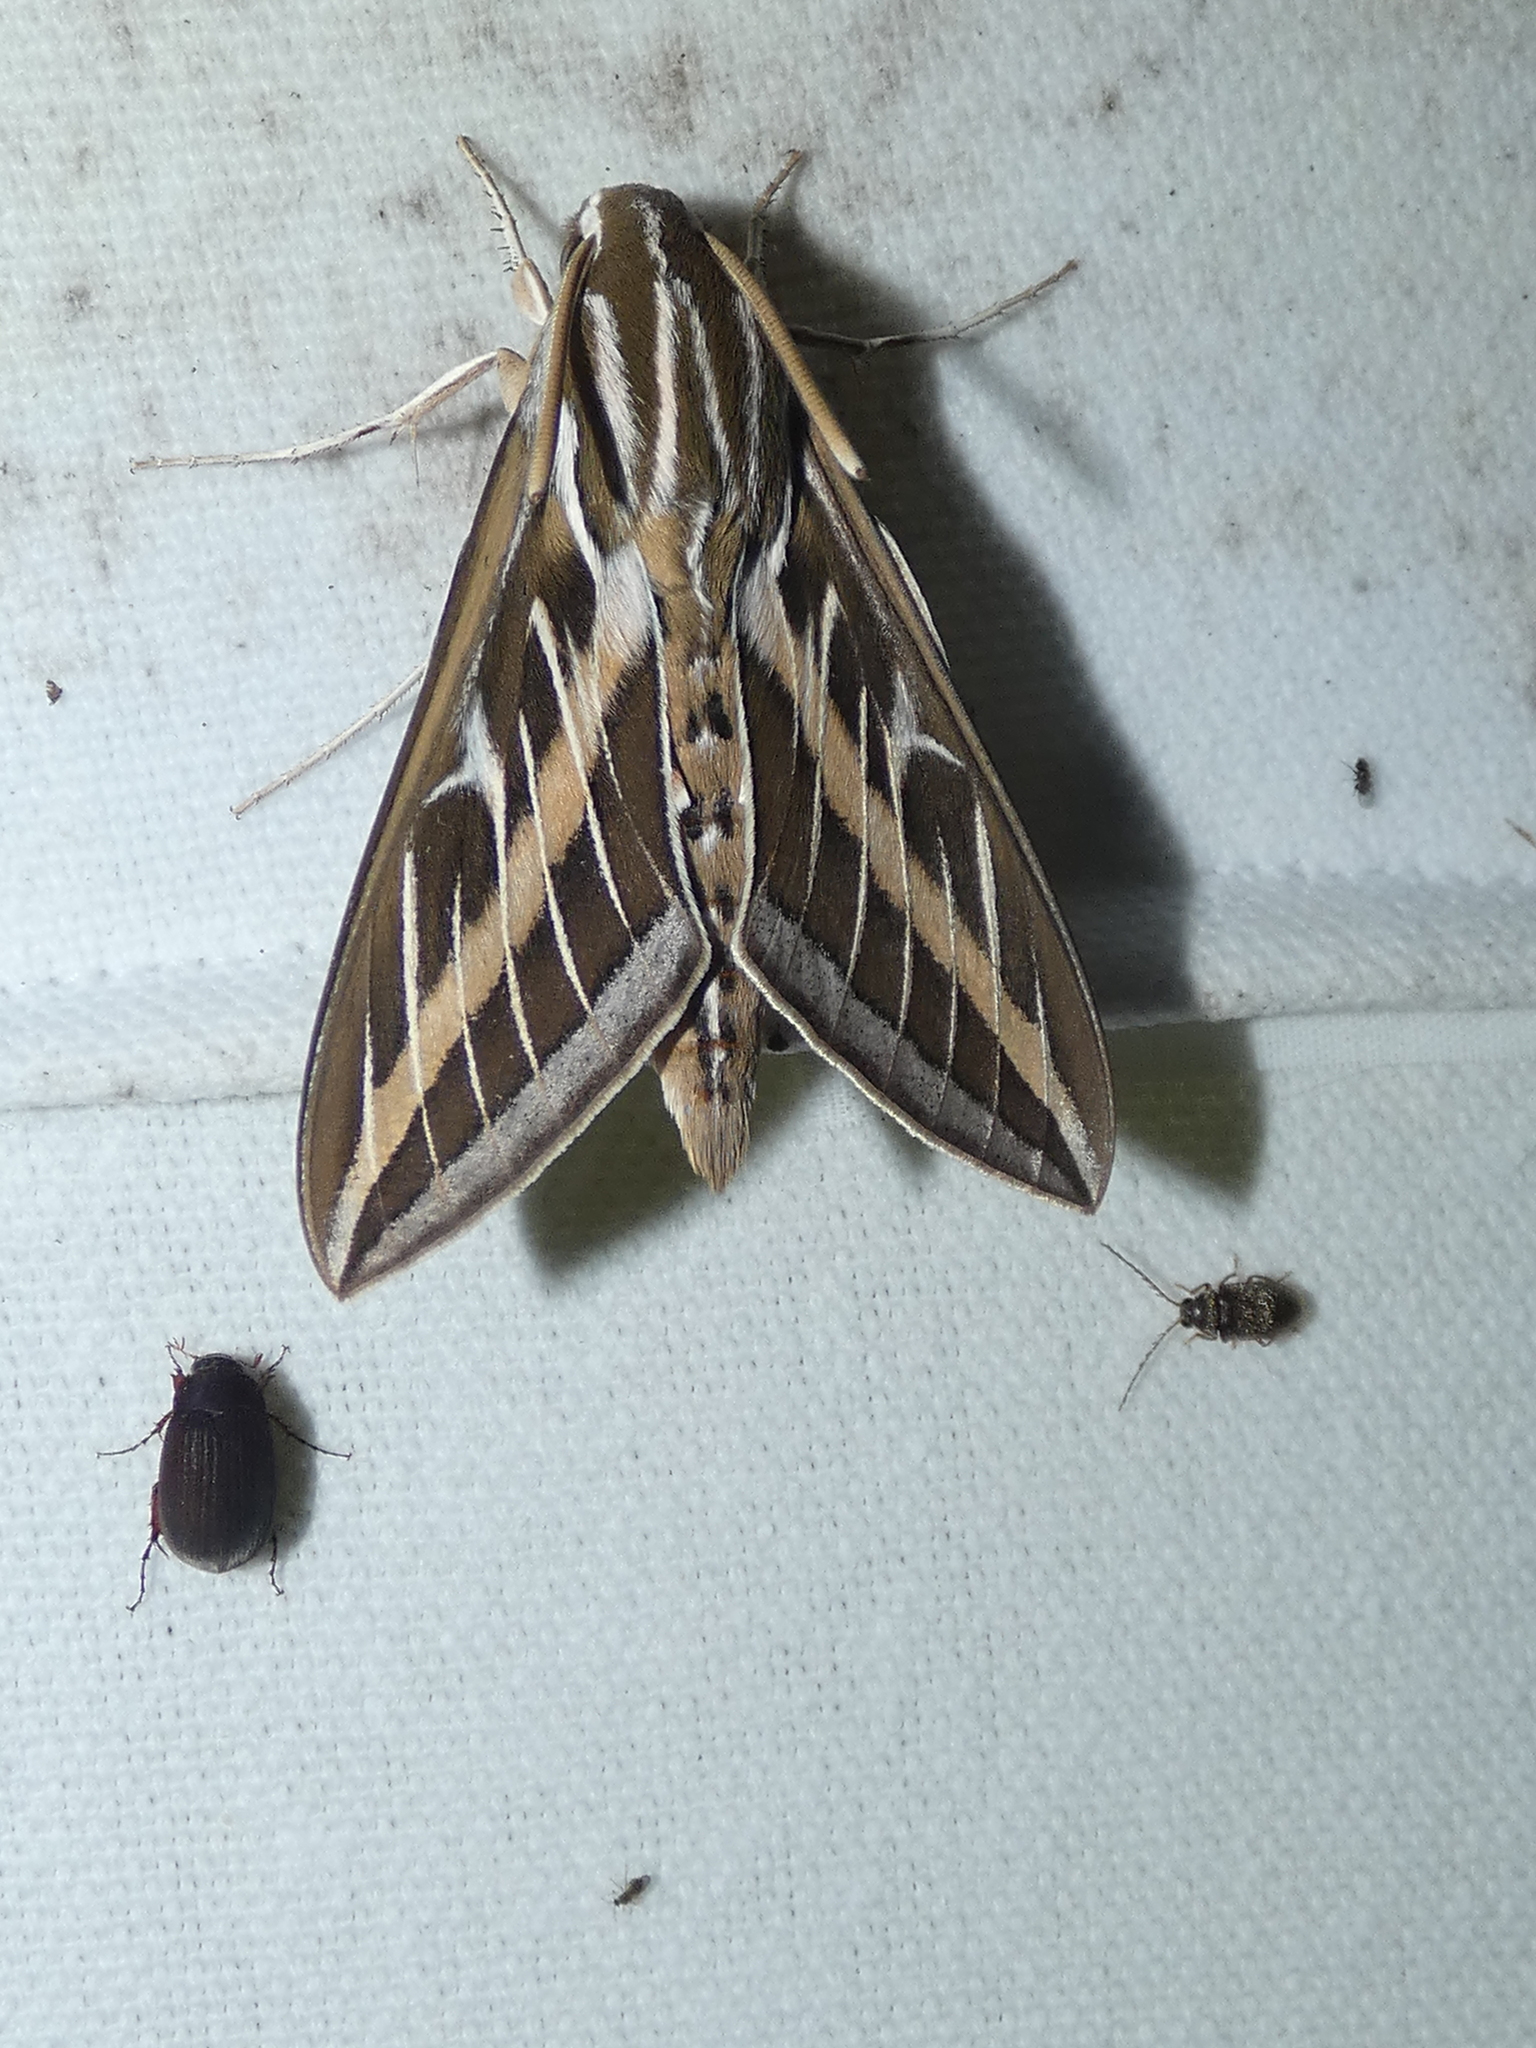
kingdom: Animalia
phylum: Arthropoda
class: Insecta
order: Lepidoptera
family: Sphingidae
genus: Hyles
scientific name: Hyles lineata
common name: White-lined sphinx
